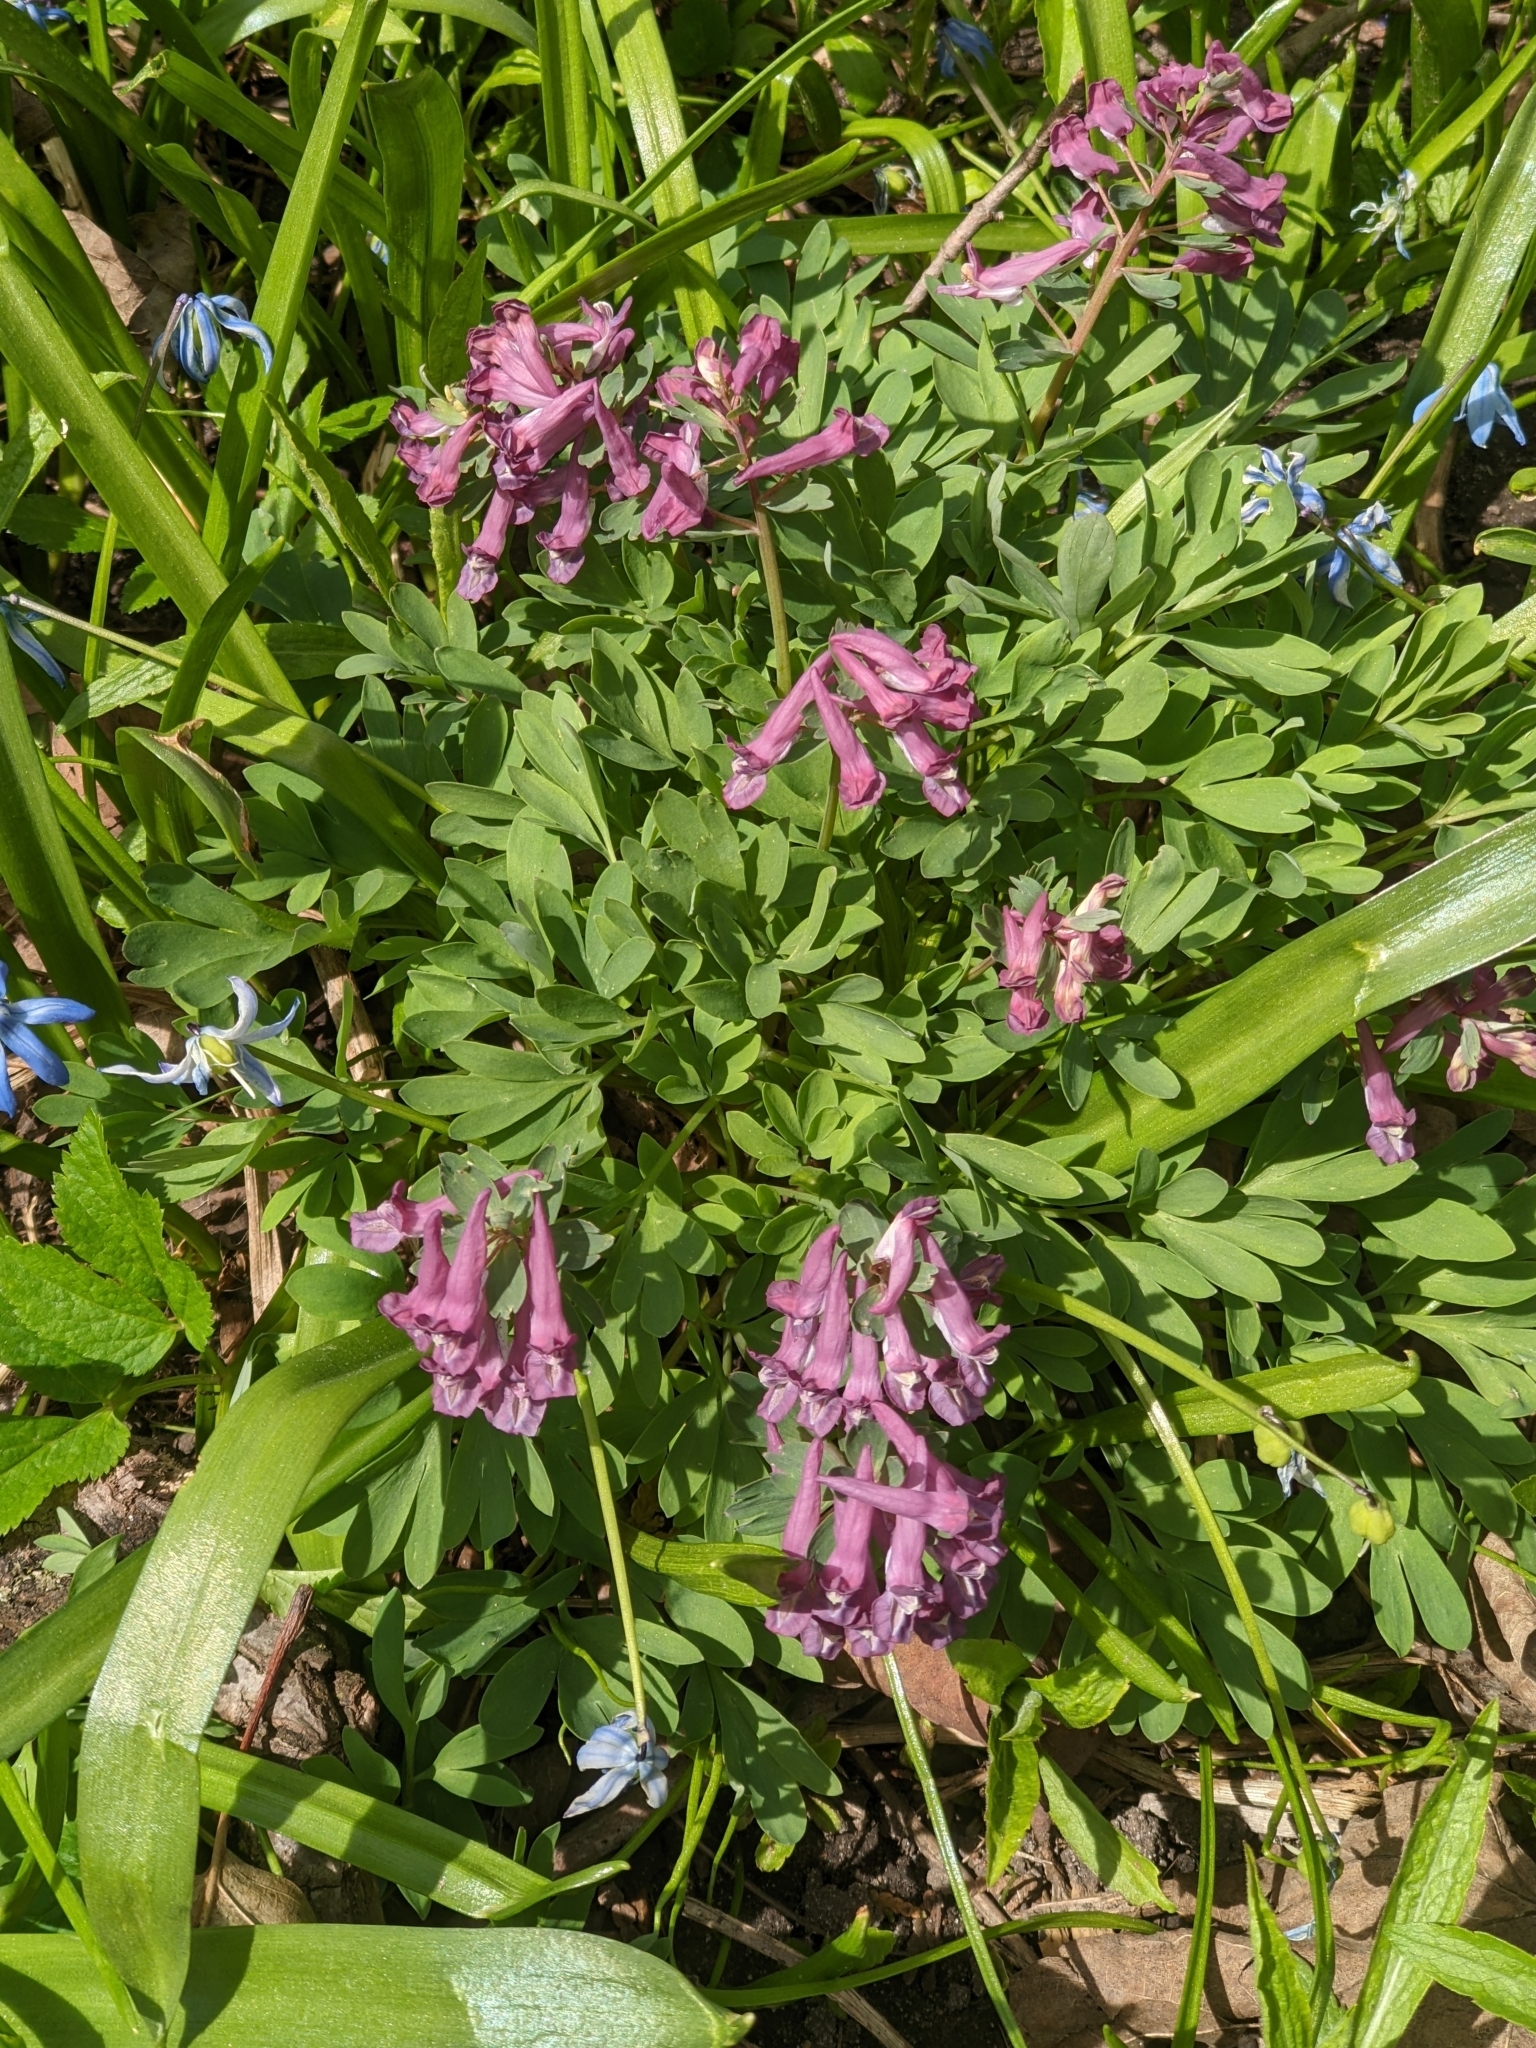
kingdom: Plantae
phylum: Tracheophyta
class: Magnoliopsida
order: Ranunculales
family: Papaveraceae
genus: Corydalis
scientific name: Corydalis solida
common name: Bird-in-a-bush
